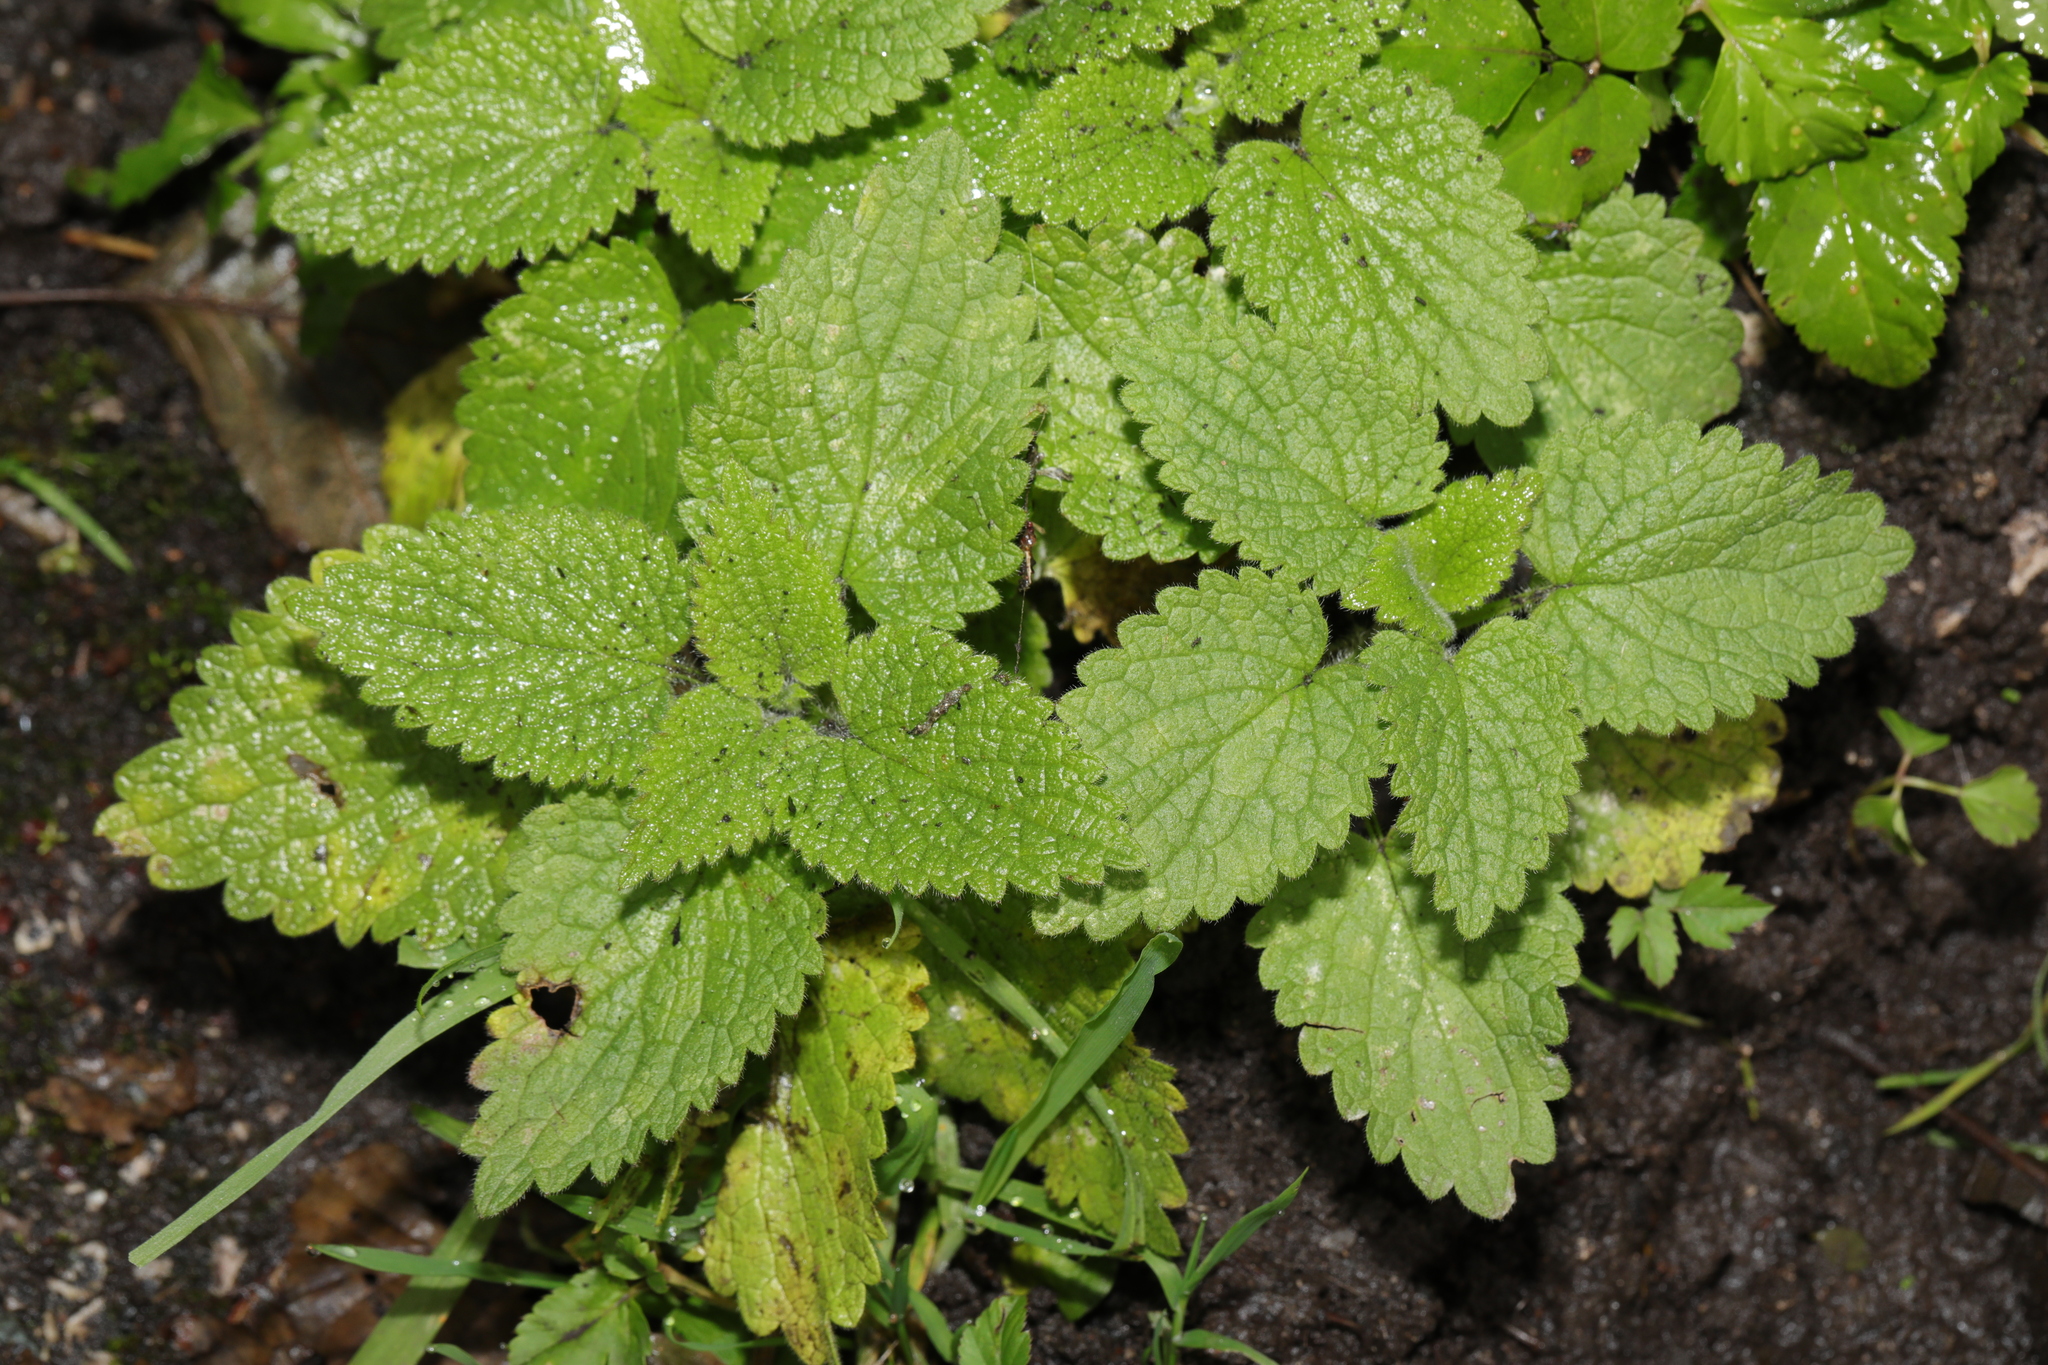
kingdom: Plantae
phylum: Tracheophyta
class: Magnoliopsida
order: Lamiales
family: Lamiaceae
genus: Melissa
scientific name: Melissa officinalis
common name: Balm
